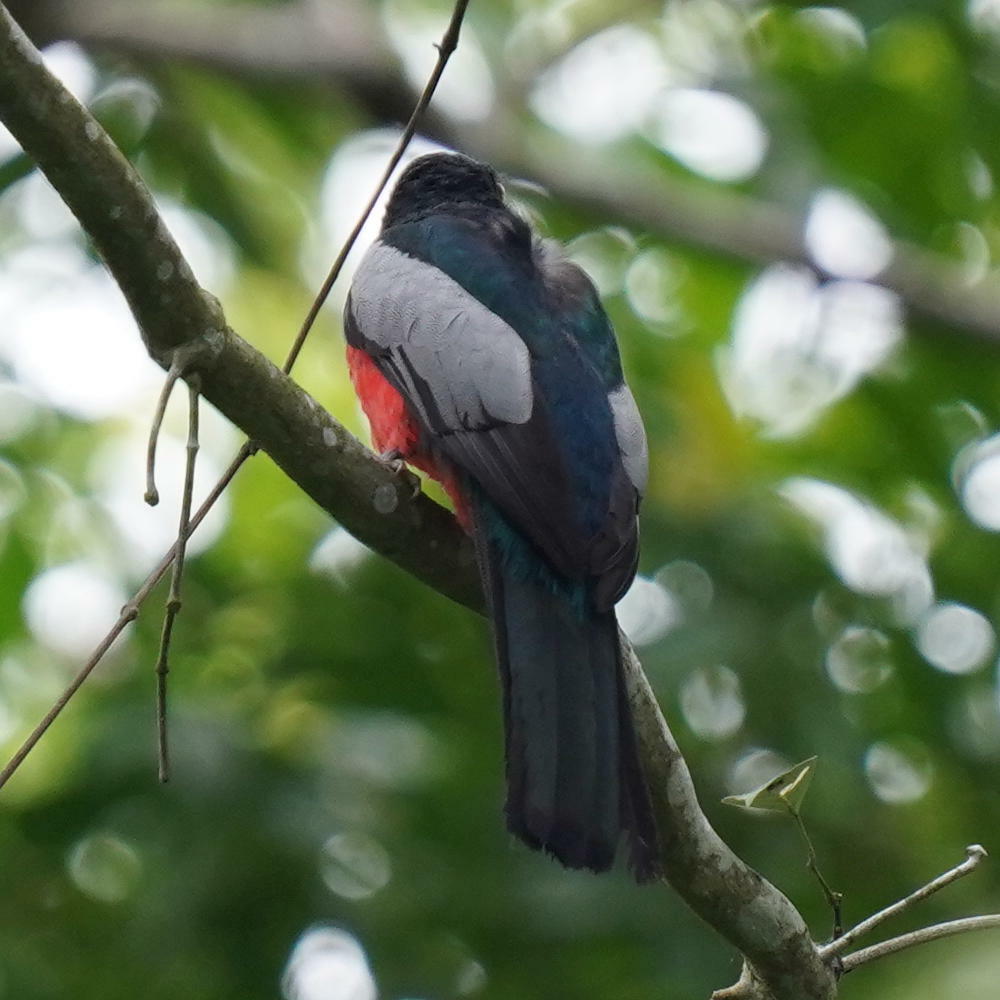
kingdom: Animalia
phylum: Chordata
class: Aves
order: Trogoniformes
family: Trogonidae
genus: Trogon
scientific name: Trogon massena
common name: Slaty-tailed trogon
